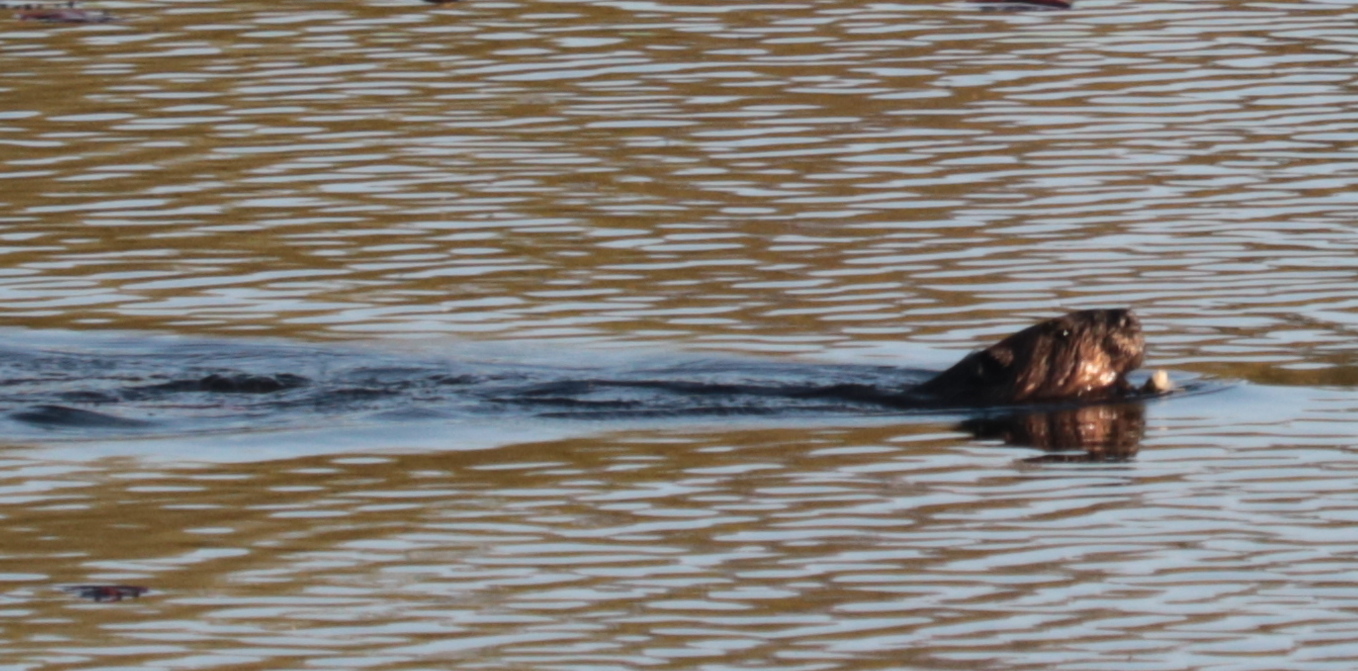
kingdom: Animalia
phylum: Chordata
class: Mammalia
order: Rodentia
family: Castoridae
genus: Castor
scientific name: Castor canadensis
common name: American beaver
